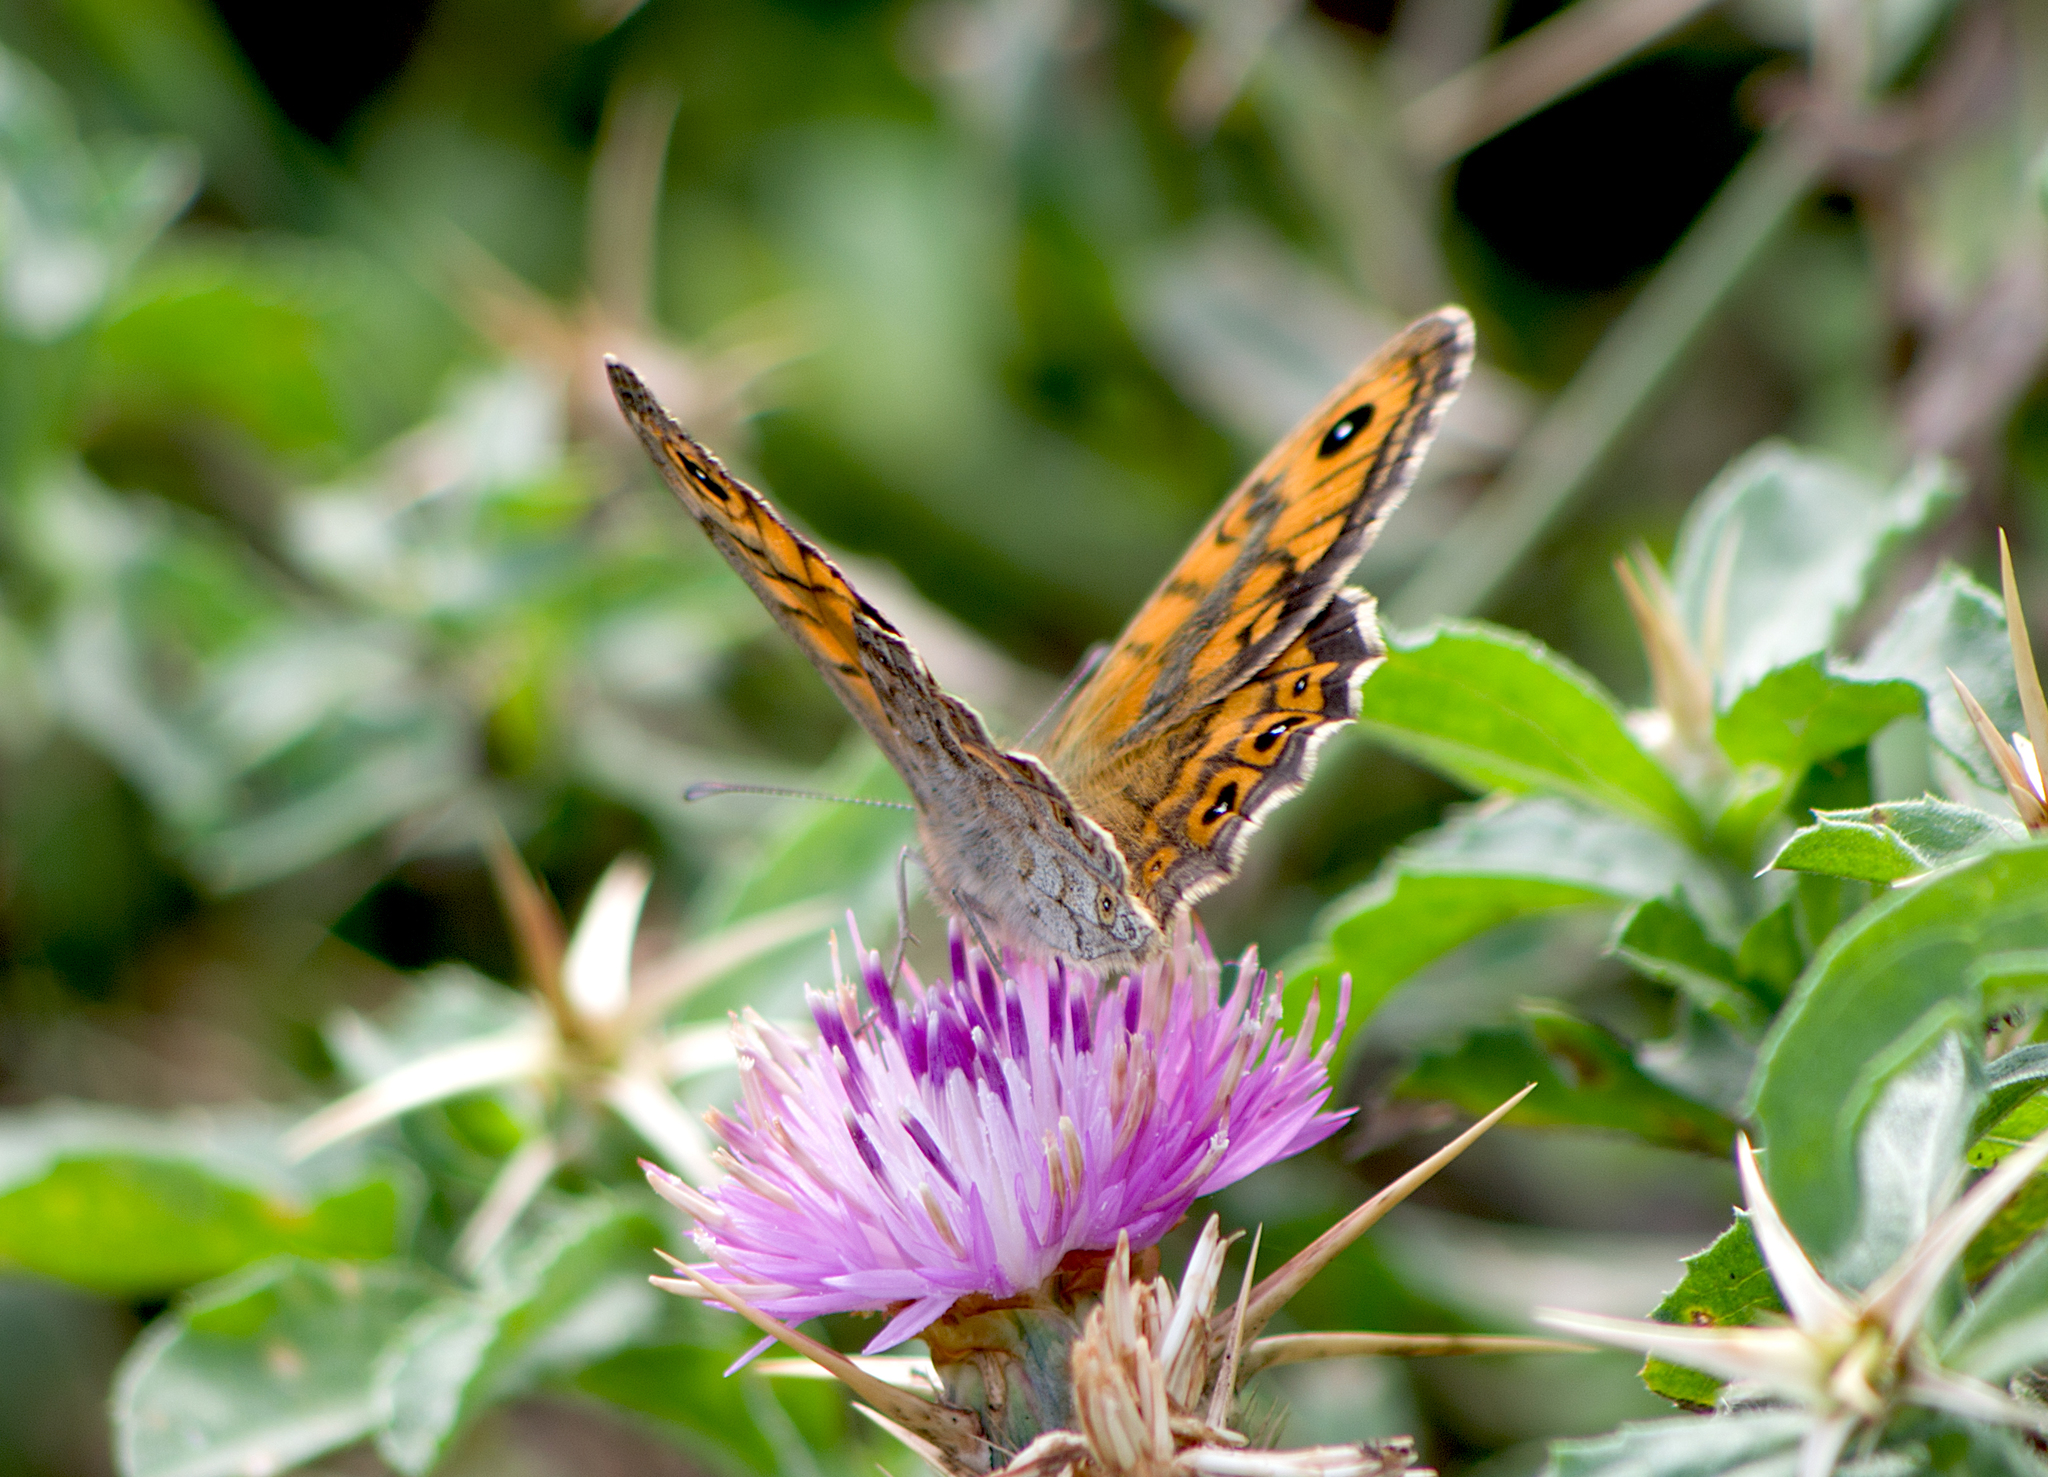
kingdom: Animalia
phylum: Arthropoda
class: Insecta
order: Lepidoptera
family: Nymphalidae
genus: Pararge
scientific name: Pararge Lasiommata megera
